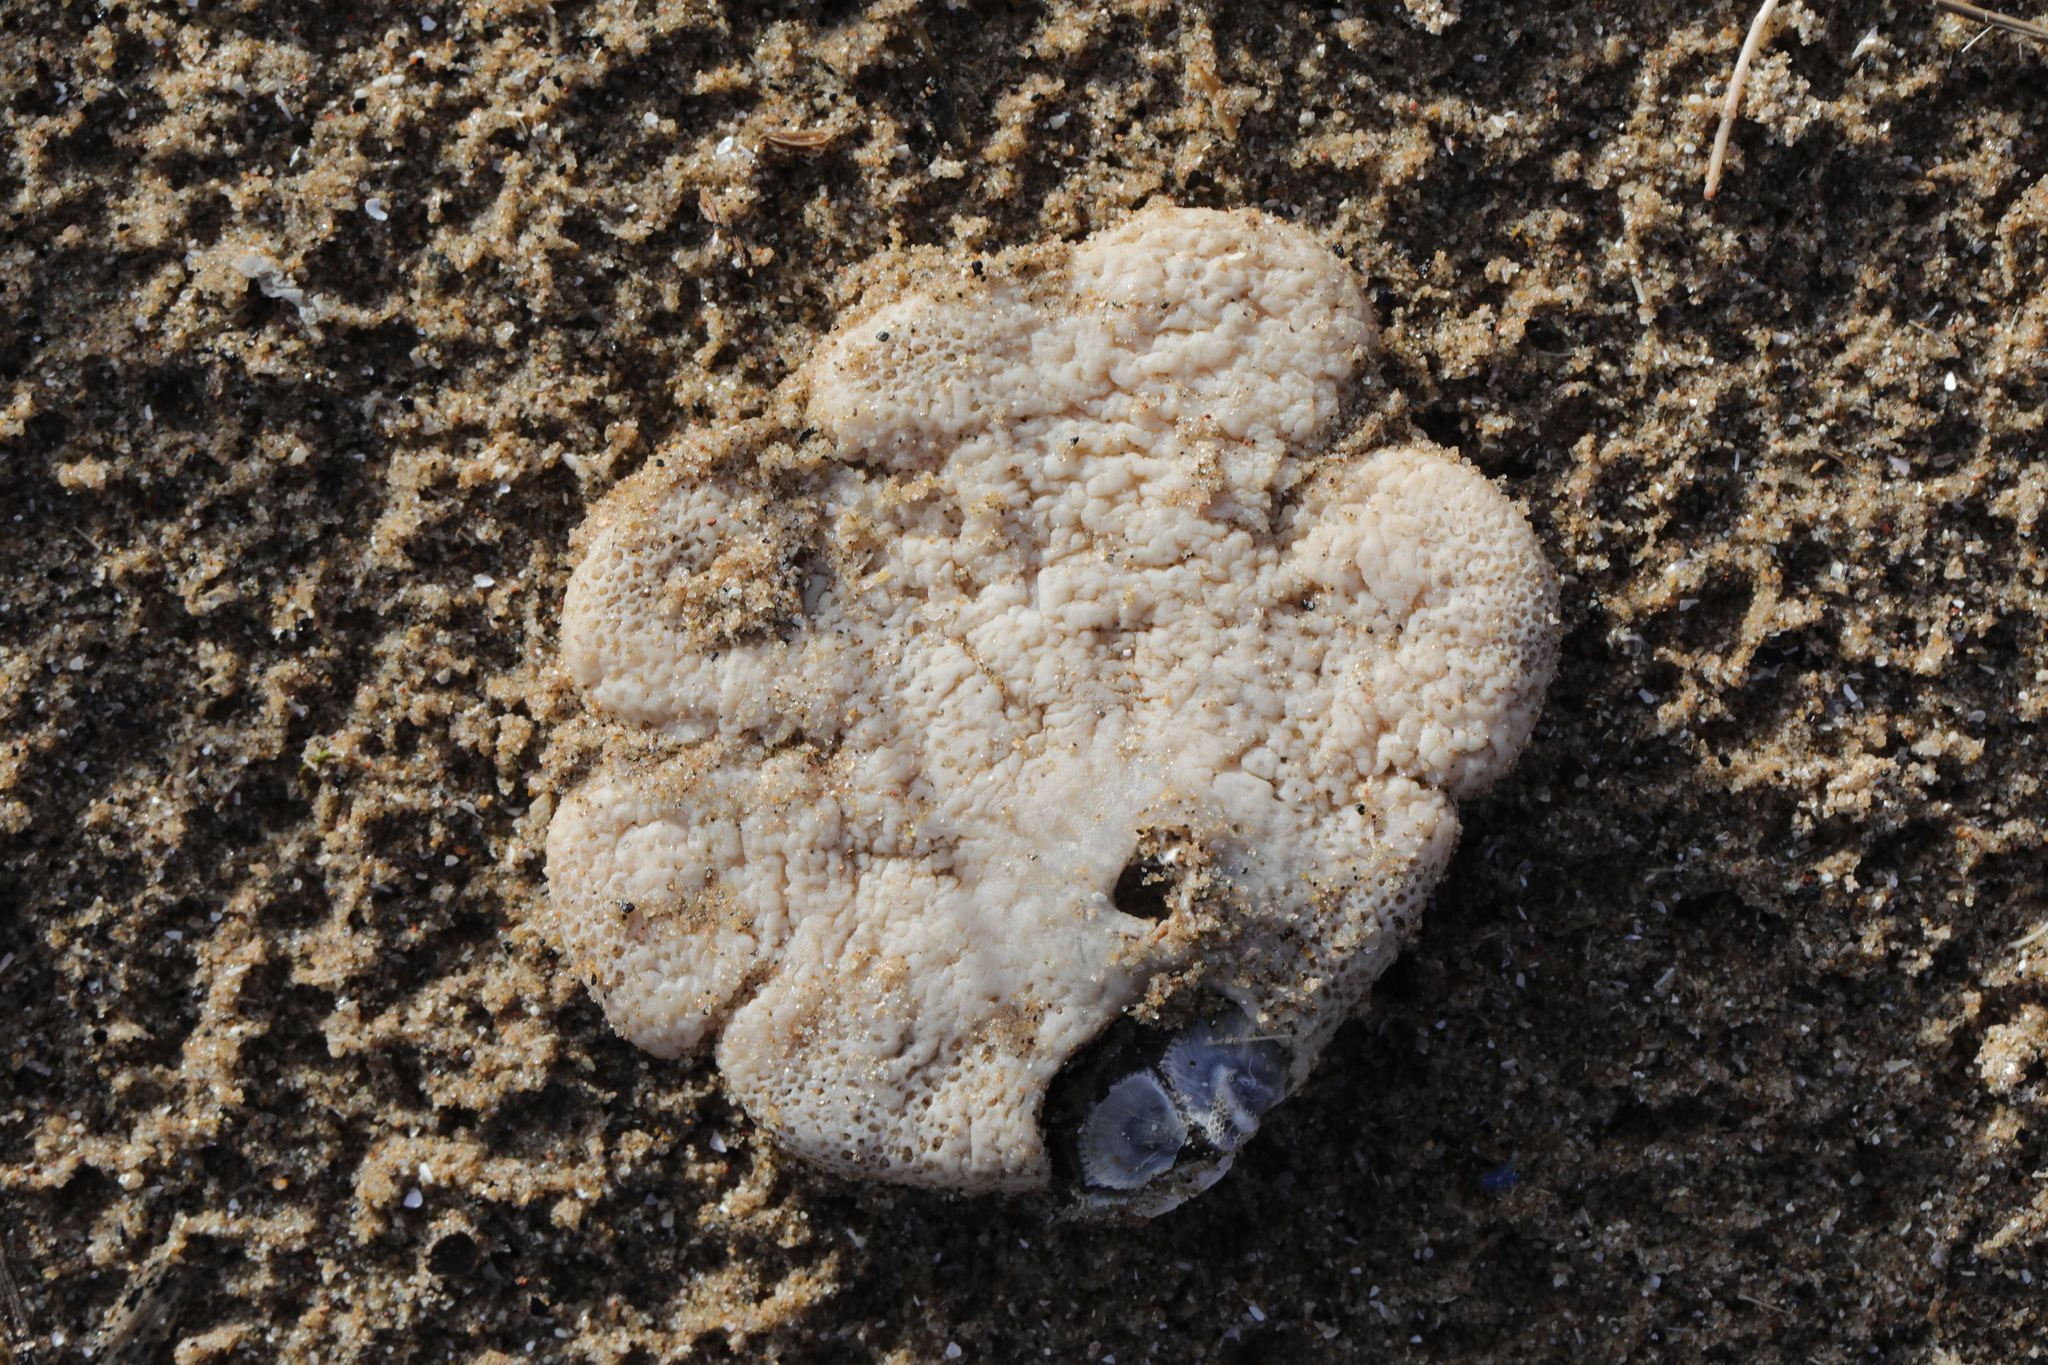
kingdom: Animalia
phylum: Cnidaria
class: Anthozoa
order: Malacalcyonacea
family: Alcyoniidae
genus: Alcyonium
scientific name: Alcyonium digitatum
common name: Dead man's fingers
